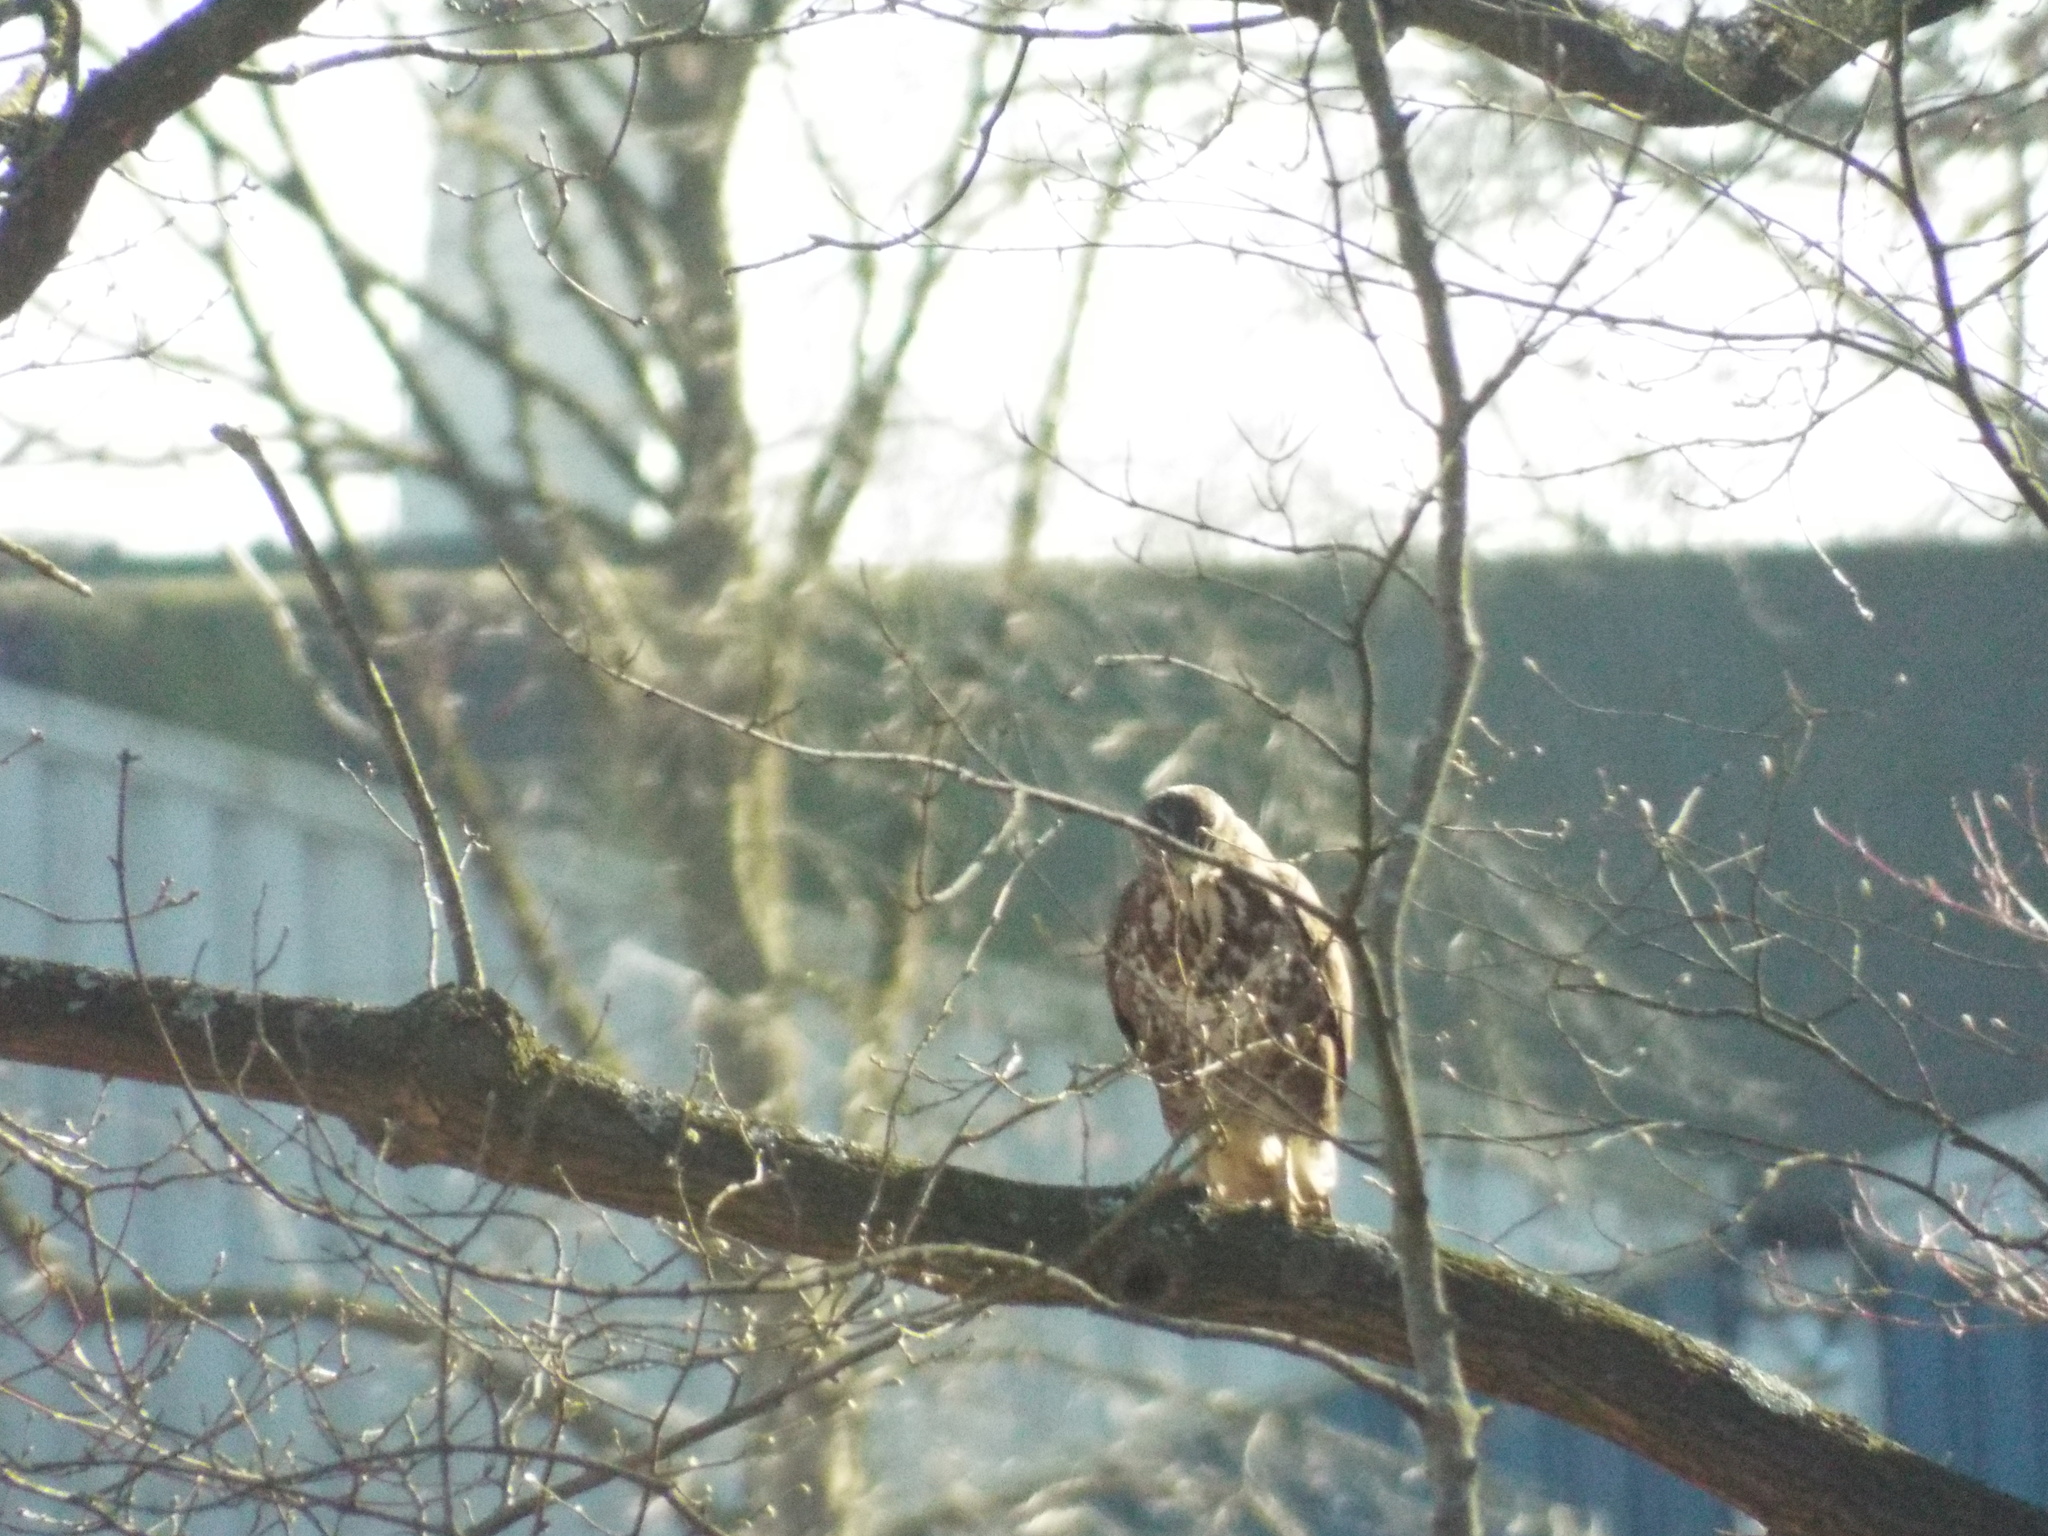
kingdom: Animalia
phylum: Chordata
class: Aves
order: Accipitriformes
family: Accipitridae
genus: Buteo
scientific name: Buteo buteo
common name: Common buzzard
